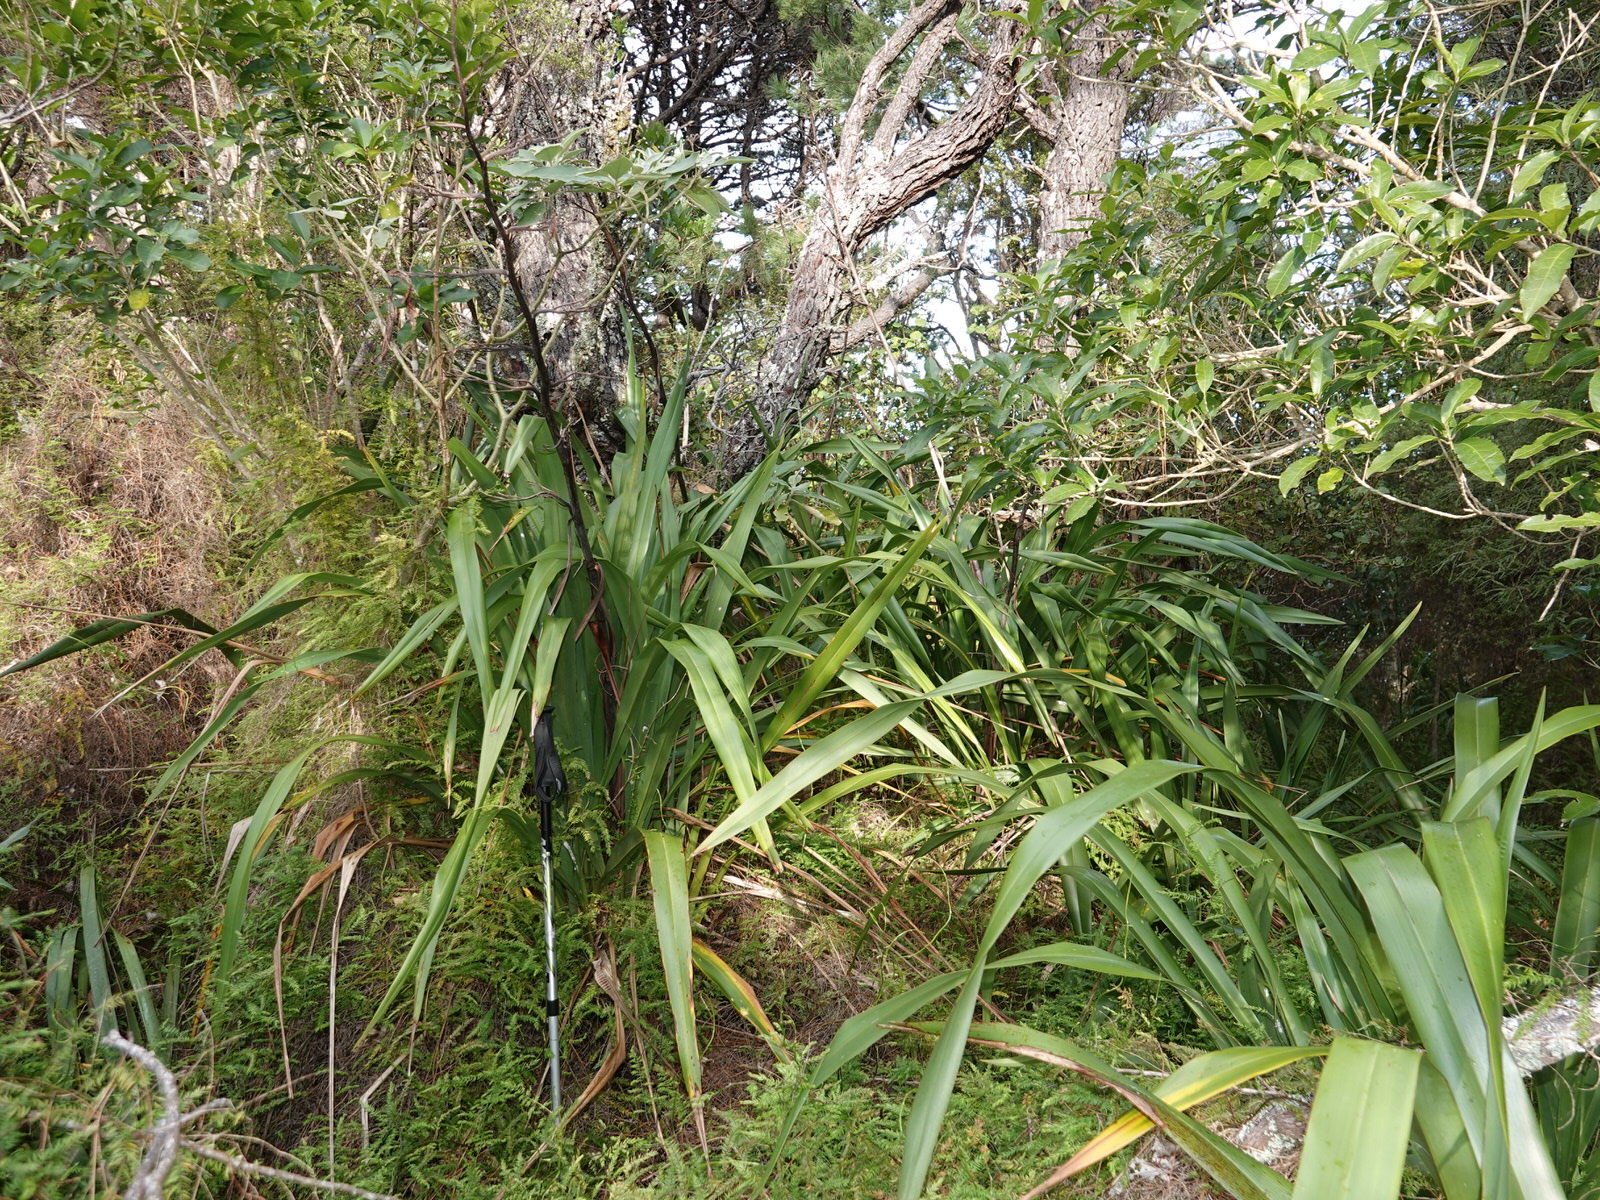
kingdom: Plantae
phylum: Tracheophyta
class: Liliopsida
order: Asparagales
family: Asphodelaceae
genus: Phormium
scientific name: Phormium colensoi
